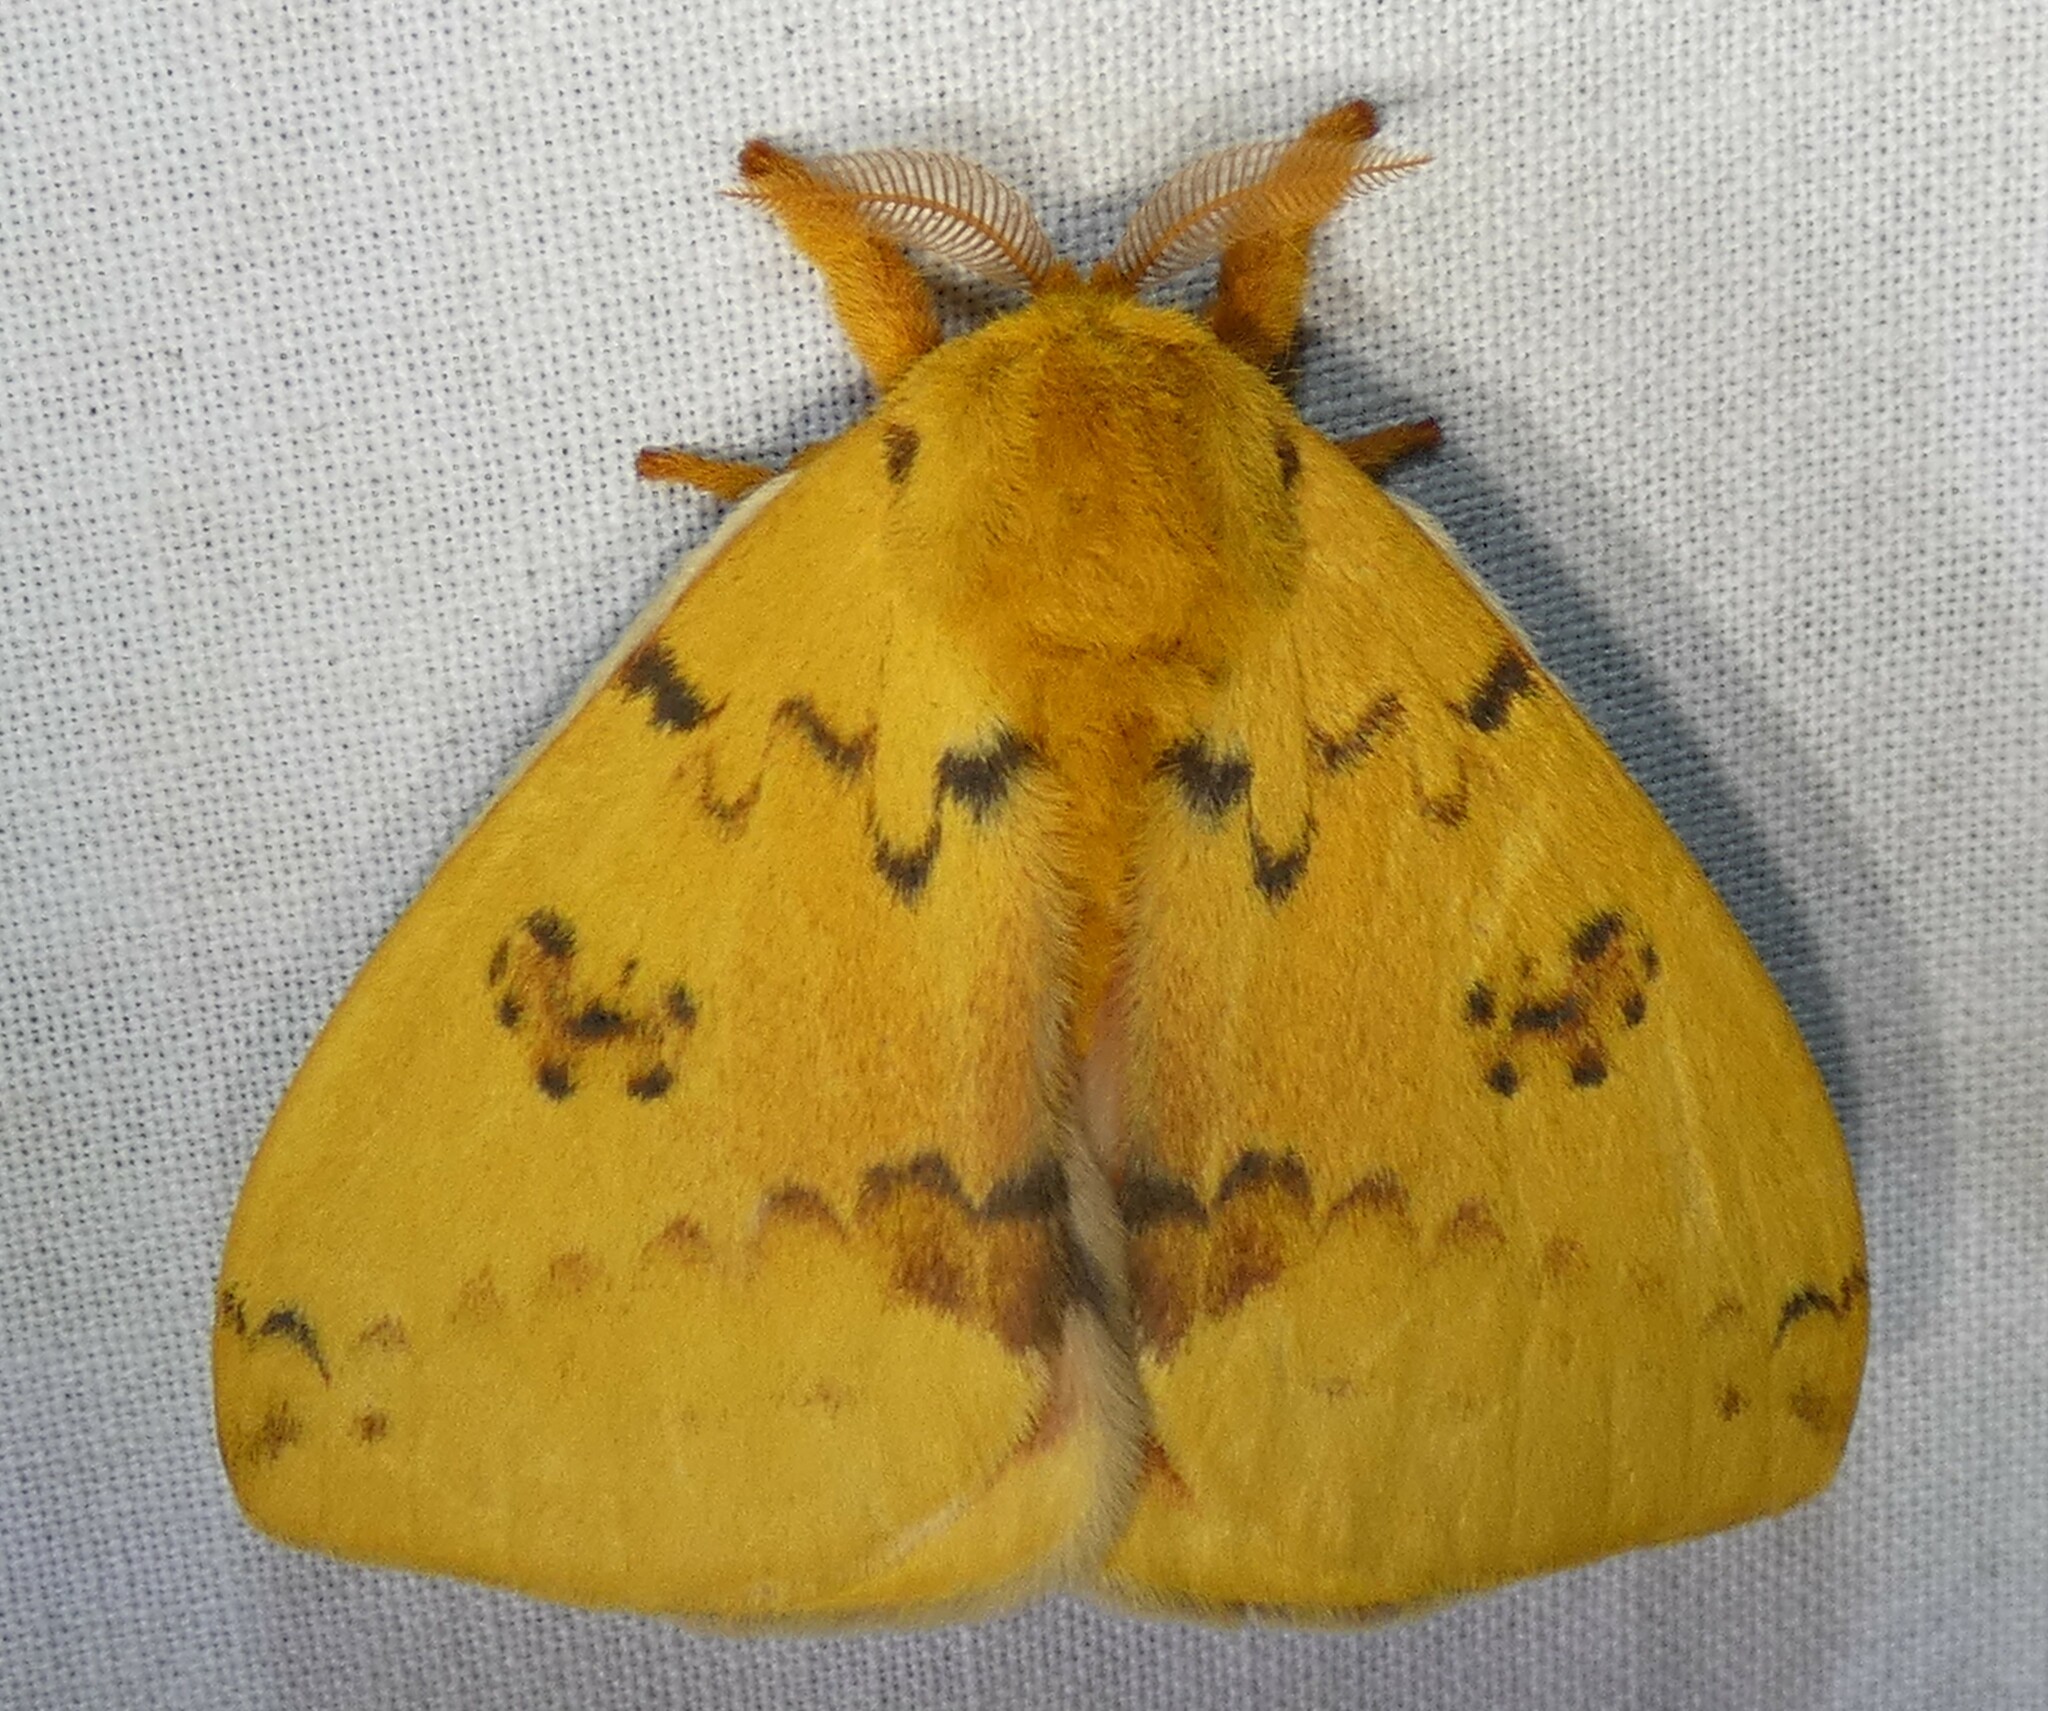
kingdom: Animalia
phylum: Arthropoda
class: Insecta
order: Lepidoptera
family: Saturniidae
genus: Automeris
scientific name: Automeris io
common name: Io moth
